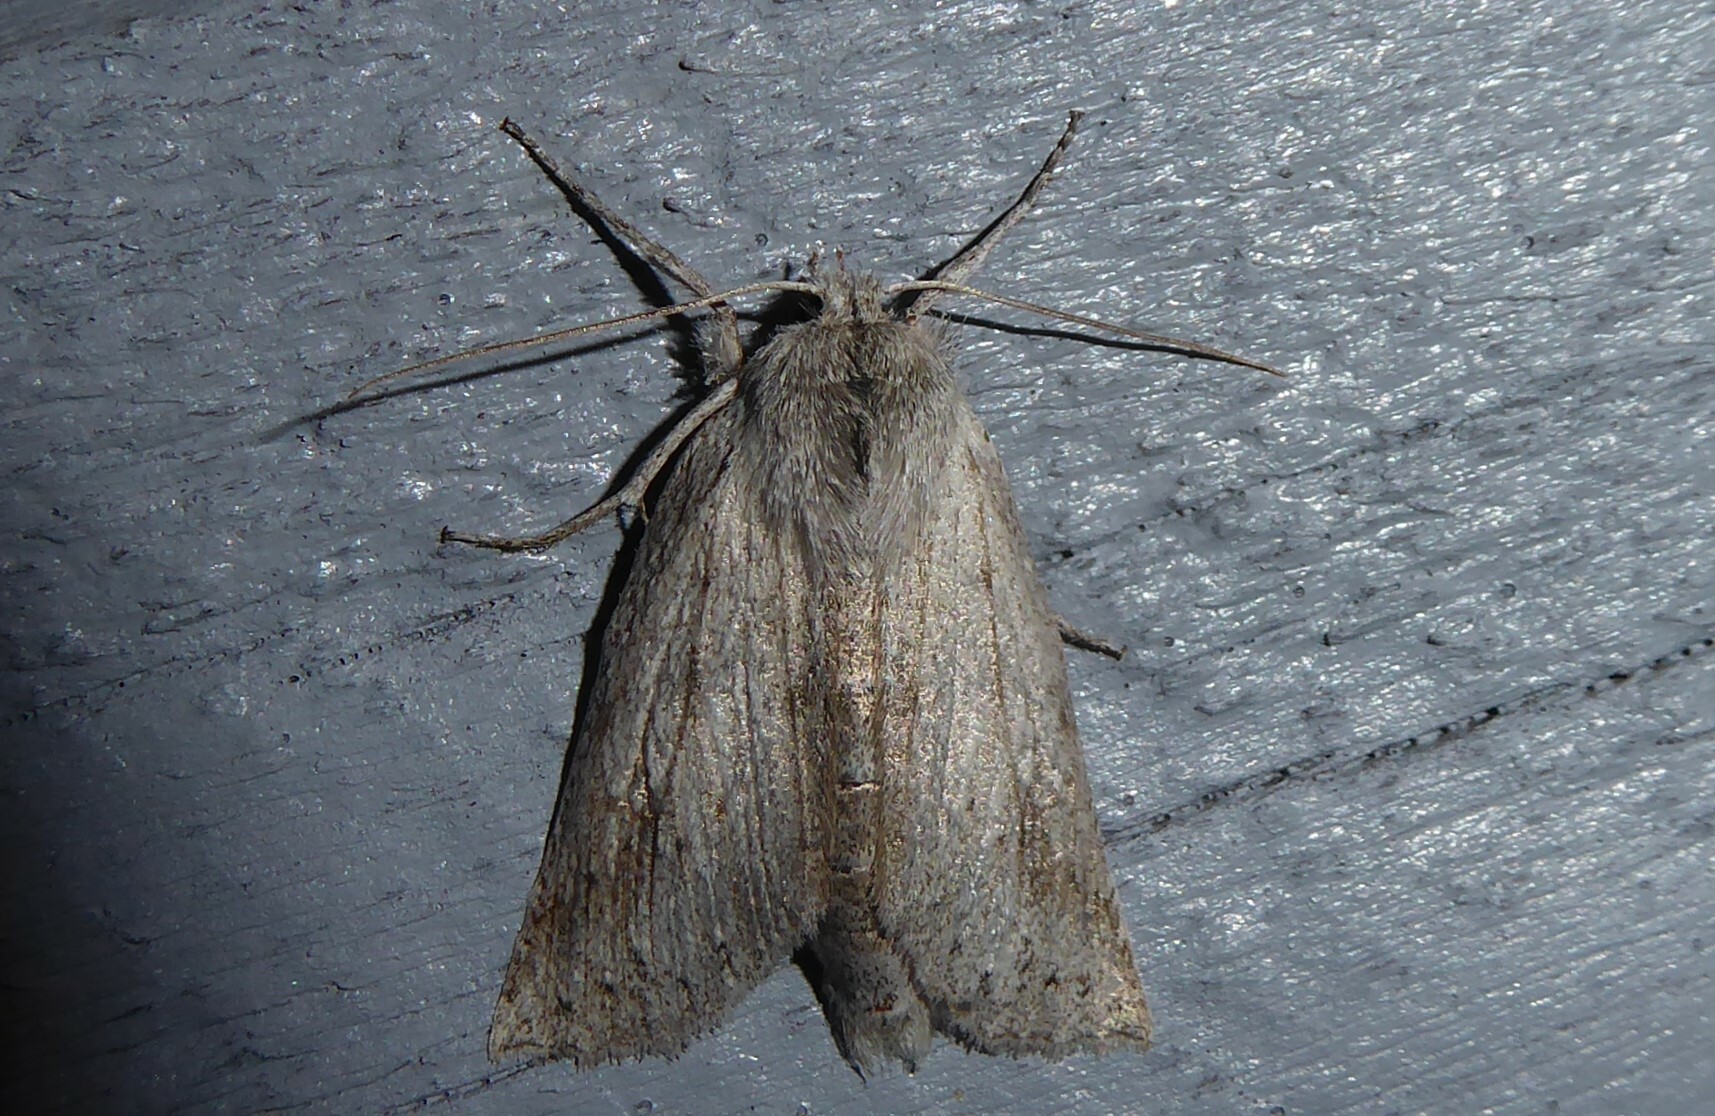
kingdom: Animalia
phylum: Arthropoda
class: Insecta
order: Lepidoptera
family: Geometridae
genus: Declana
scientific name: Declana leptomera
